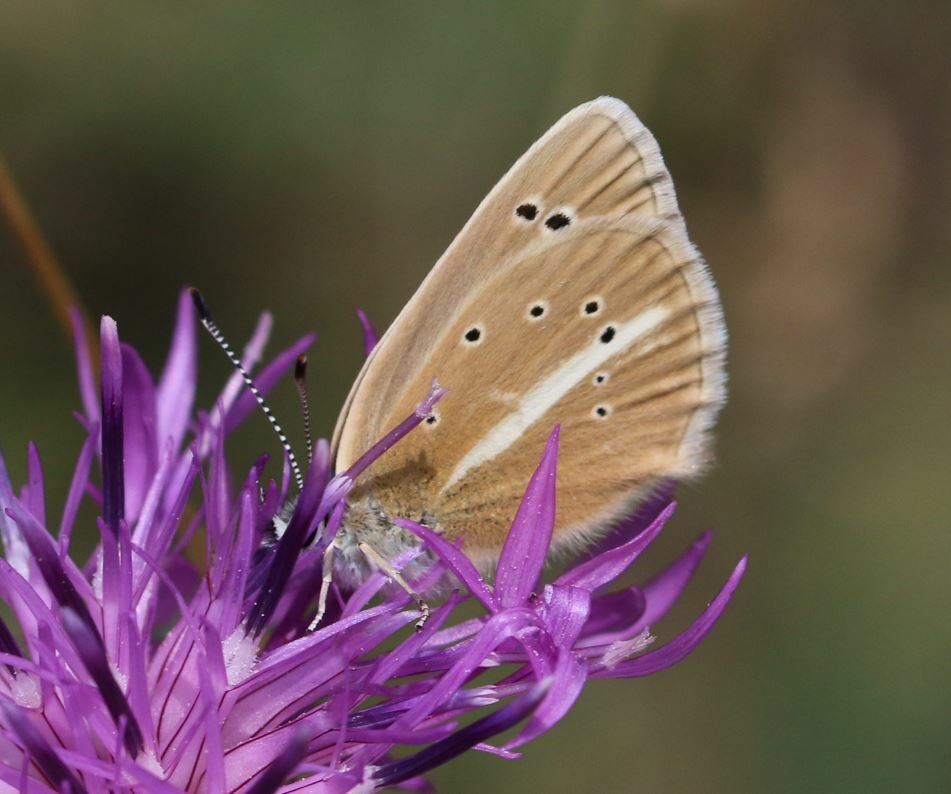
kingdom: Animalia
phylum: Arthropoda
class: Insecta
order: Lepidoptera
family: Lycaenidae
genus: Agrodiaetus
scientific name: Agrodiaetus damon
